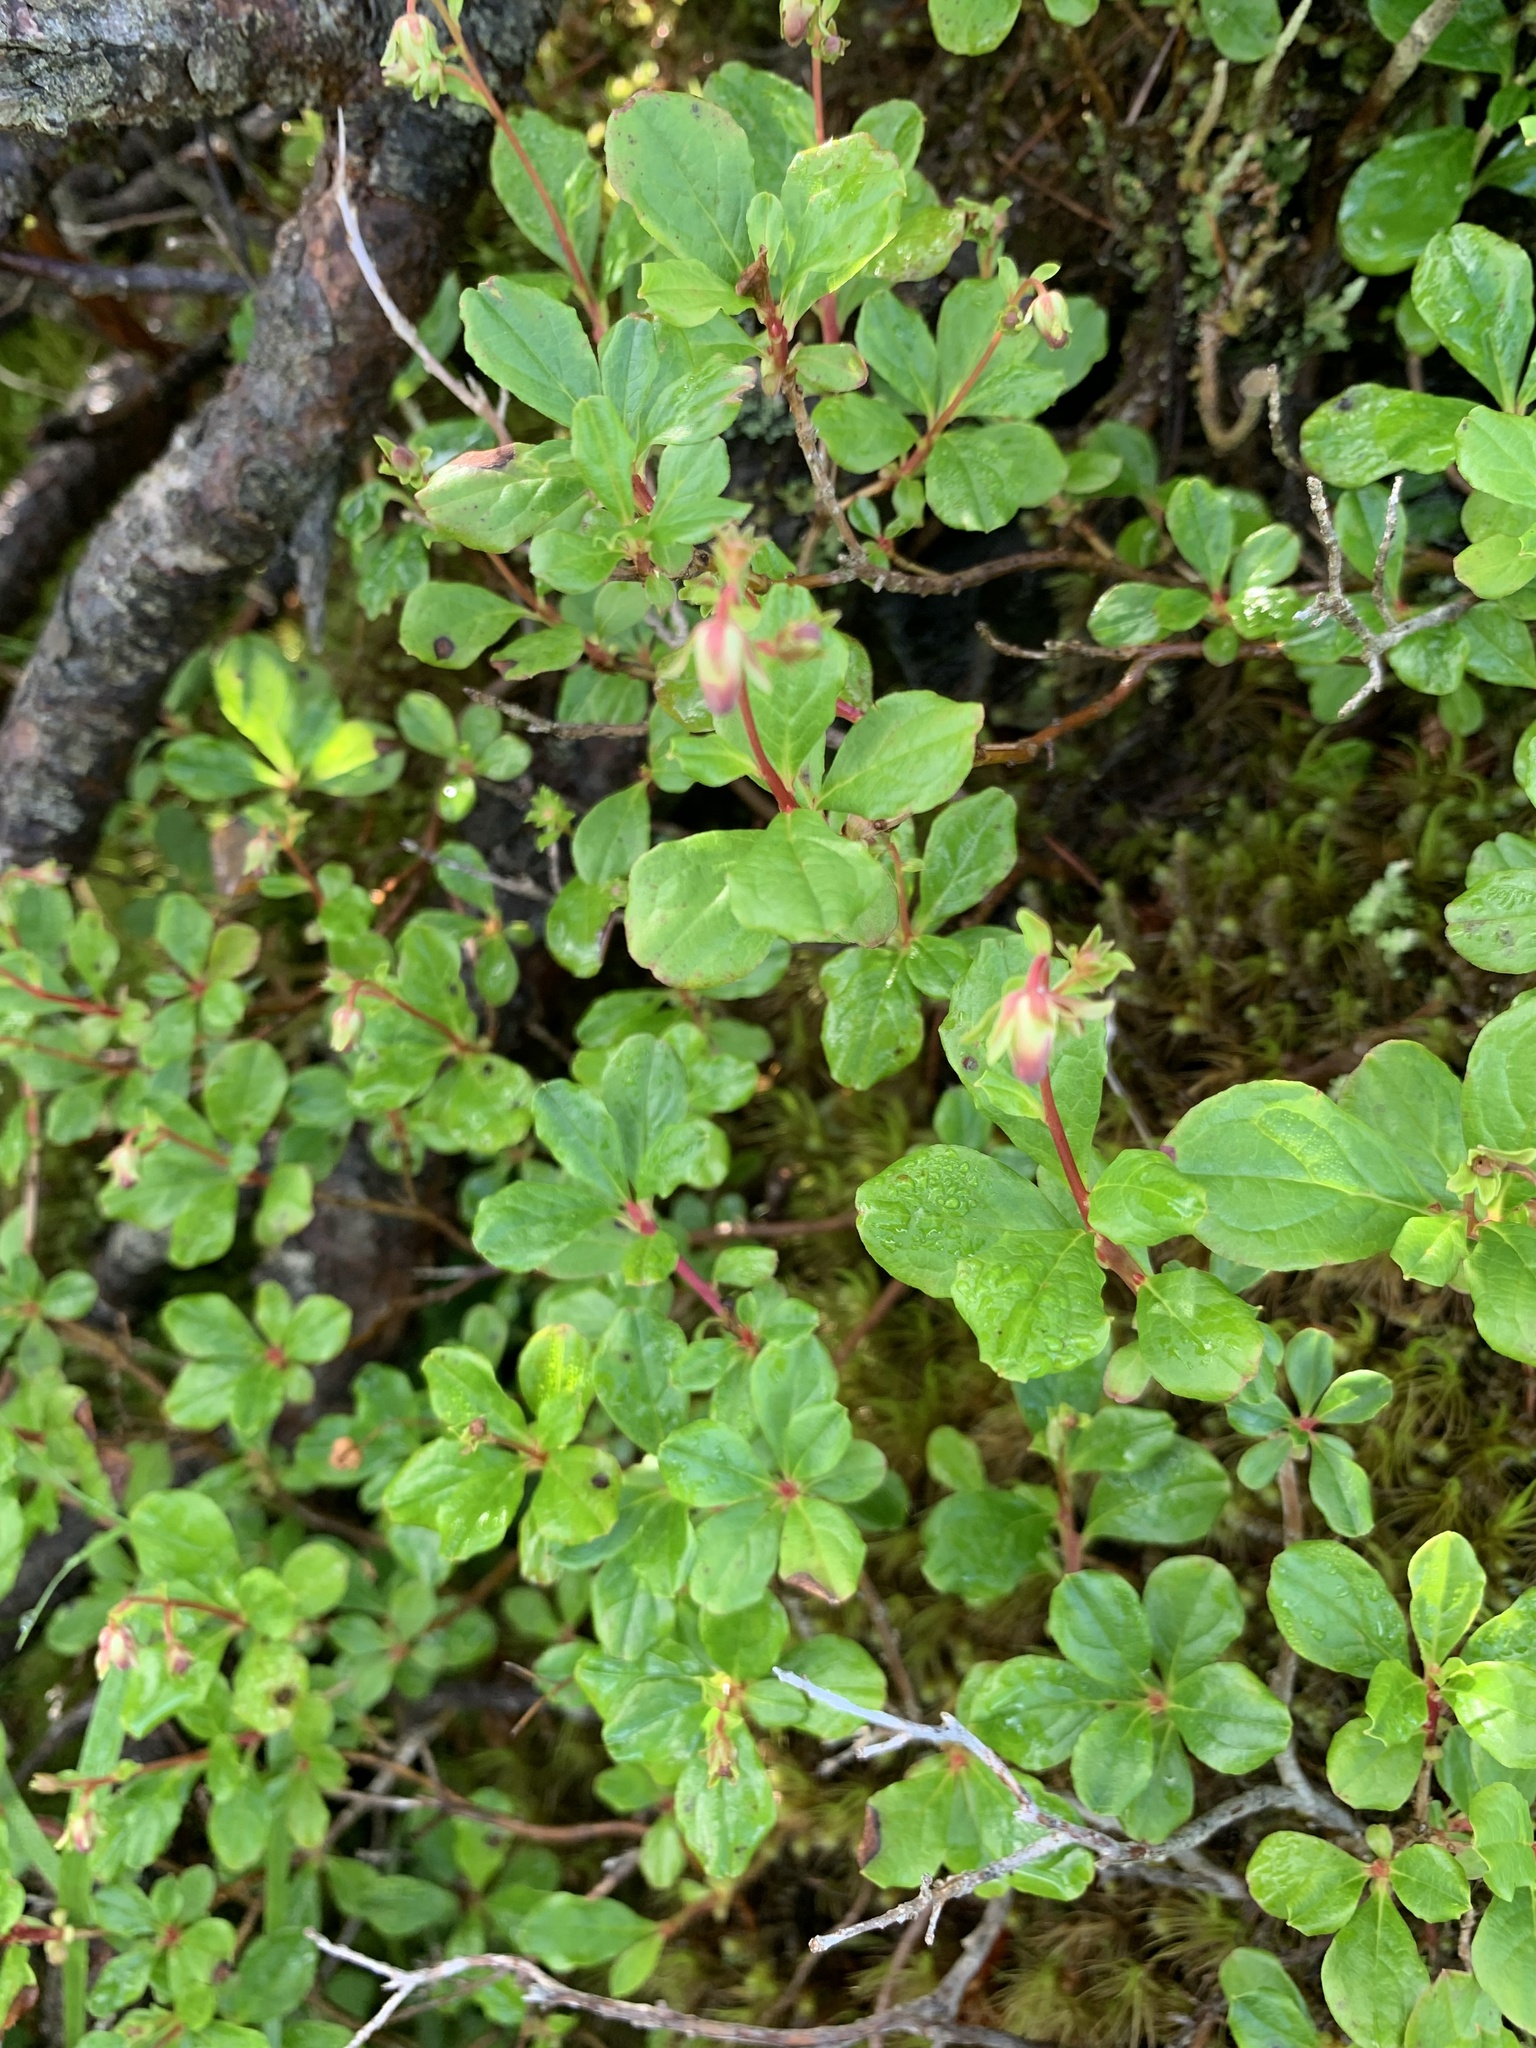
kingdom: Plantae
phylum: Tracheophyta
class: Magnoliopsida
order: Ericales
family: Ericaceae
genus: Elliottia
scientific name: Elliottia bracteata
